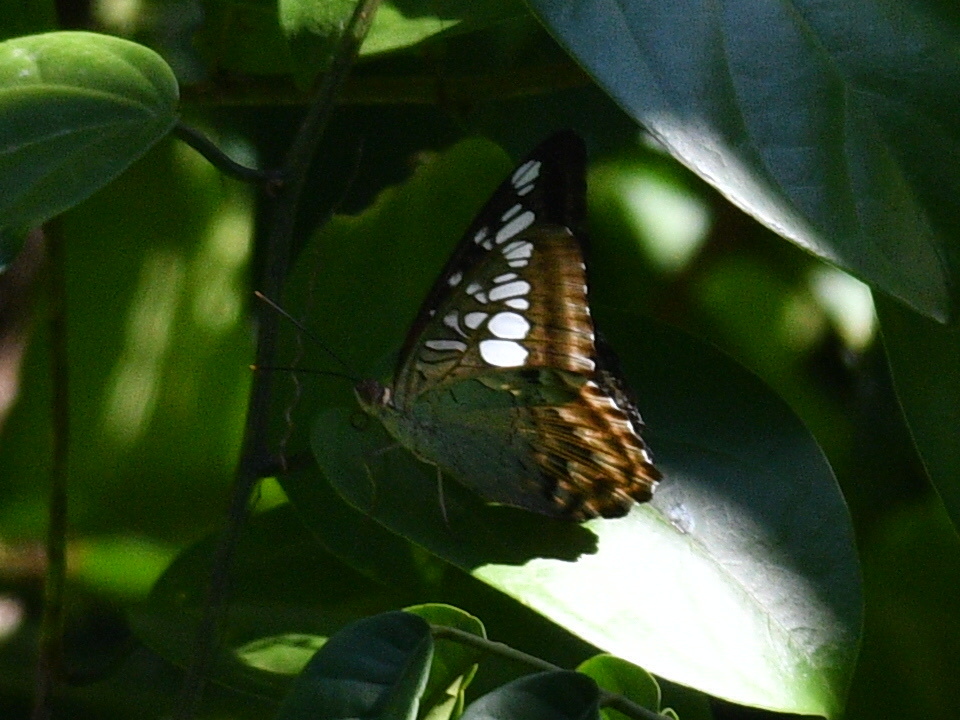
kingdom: Animalia
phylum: Arthropoda
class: Insecta
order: Lepidoptera
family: Nymphalidae
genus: Kallima
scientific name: Kallima sylvia
